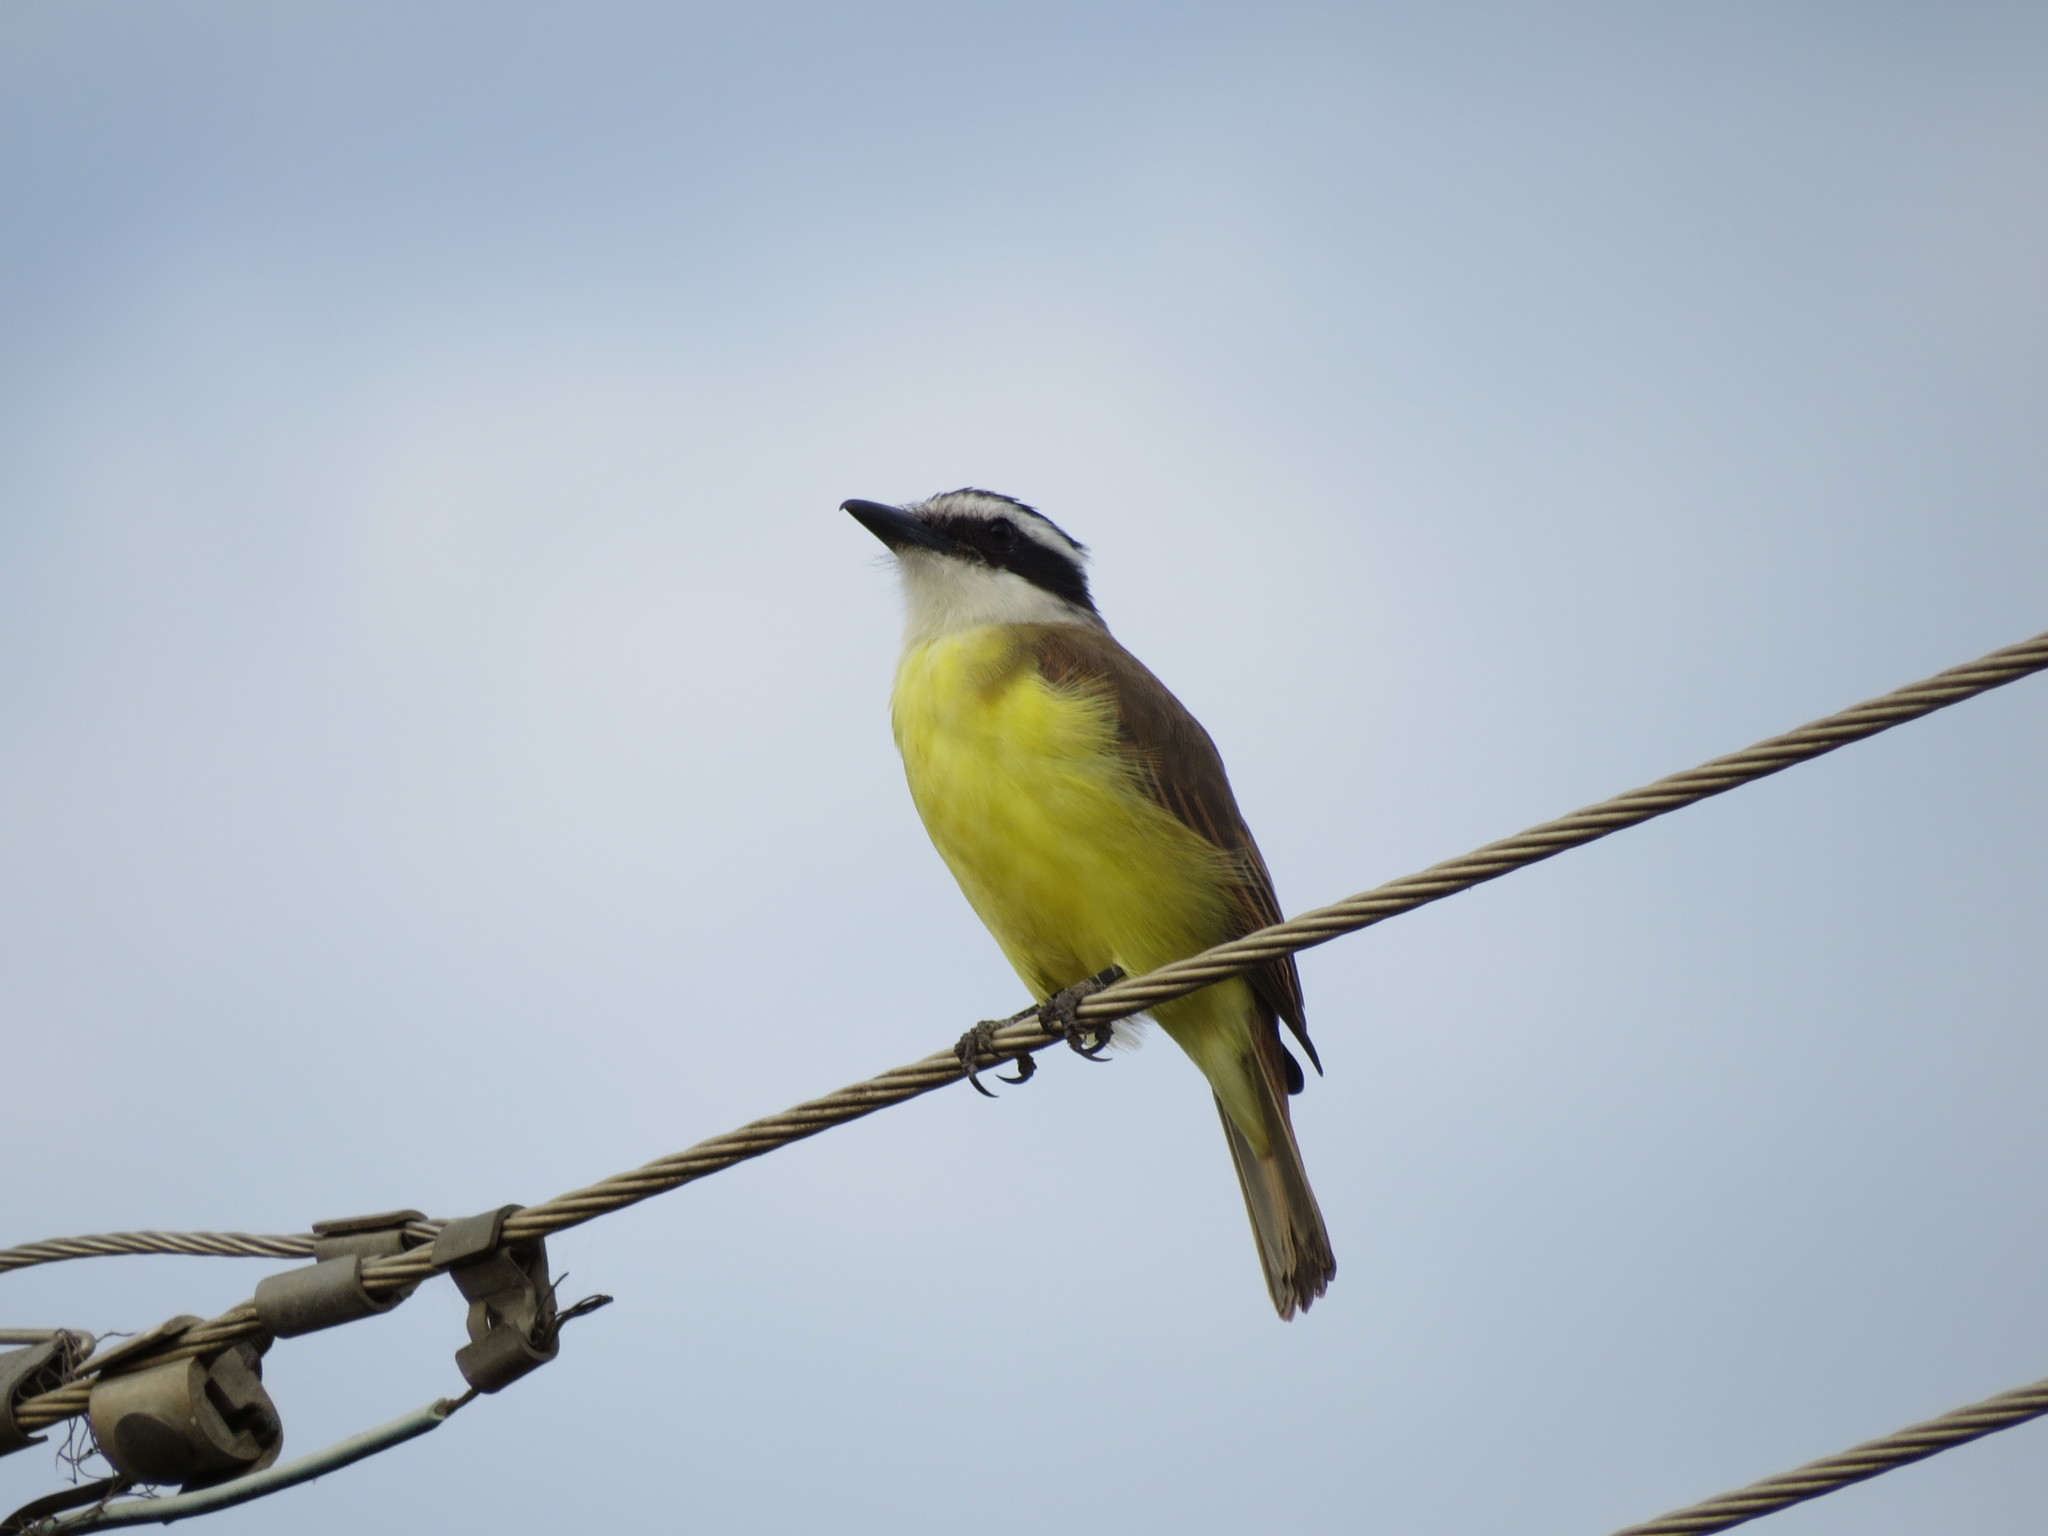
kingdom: Animalia
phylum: Chordata
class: Aves
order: Passeriformes
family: Tyrannidae
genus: Pitangus
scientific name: Pitangus sulphuratus
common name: Great kiskadee
